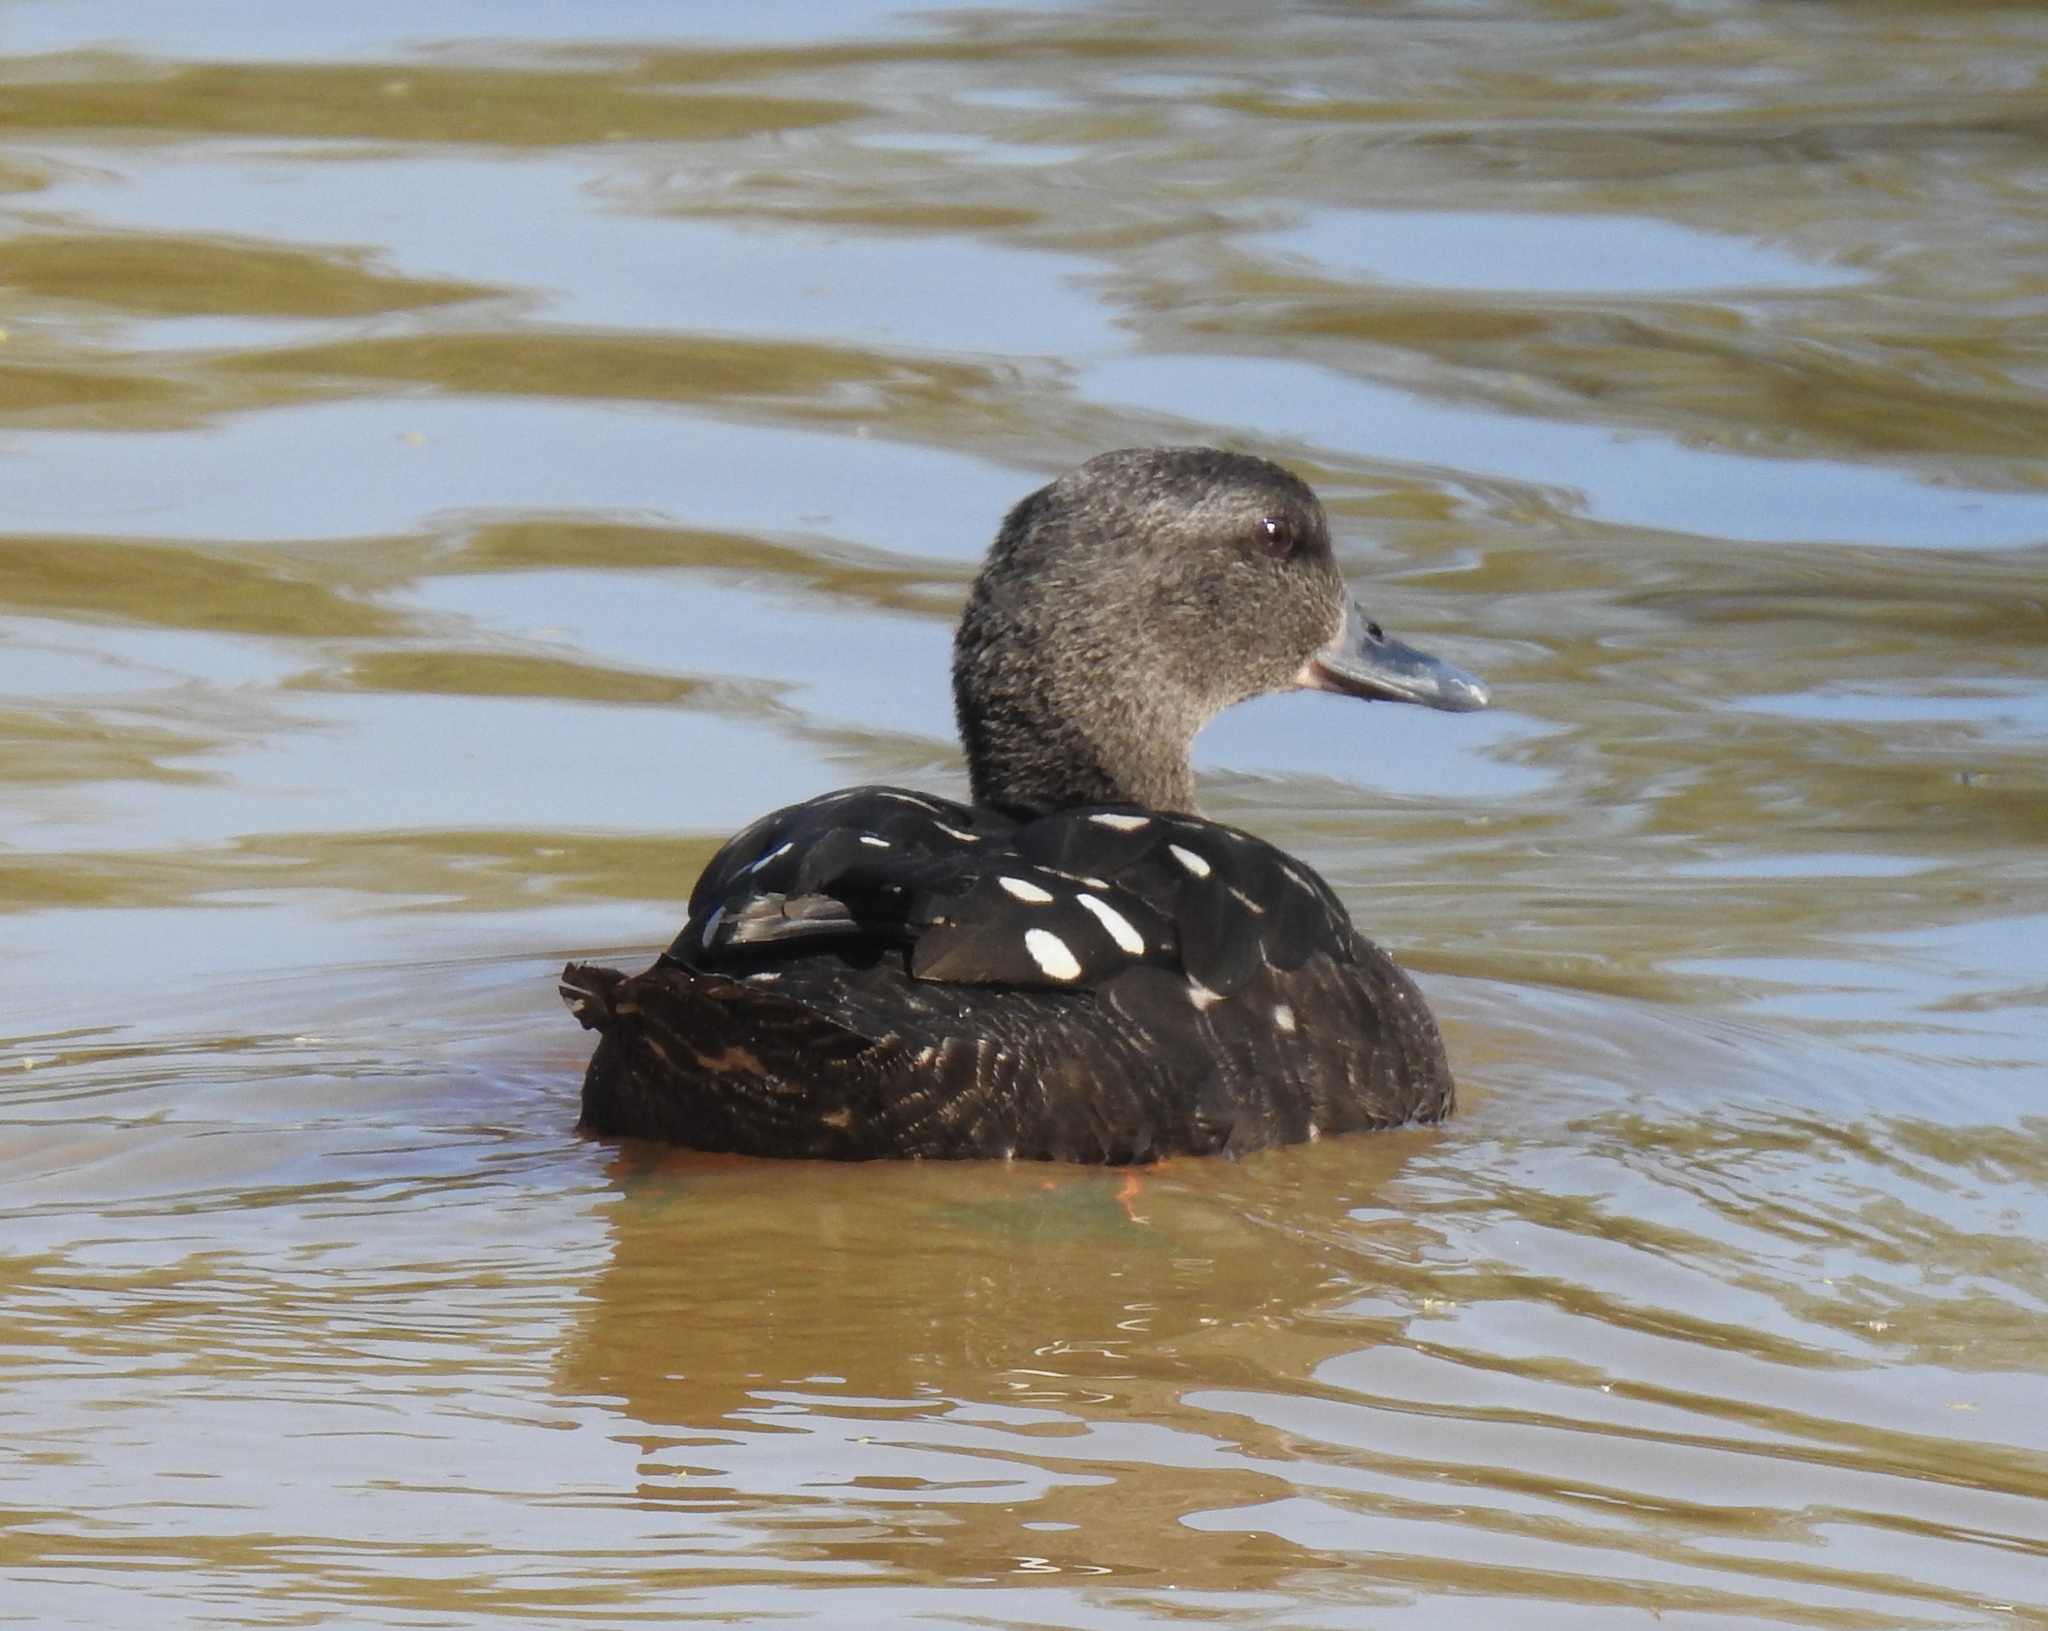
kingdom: Animalia
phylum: Chordata
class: Aves
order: Anseriformes
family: Anatidae
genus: Anas
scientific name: Anas sparsa
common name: African black duck
